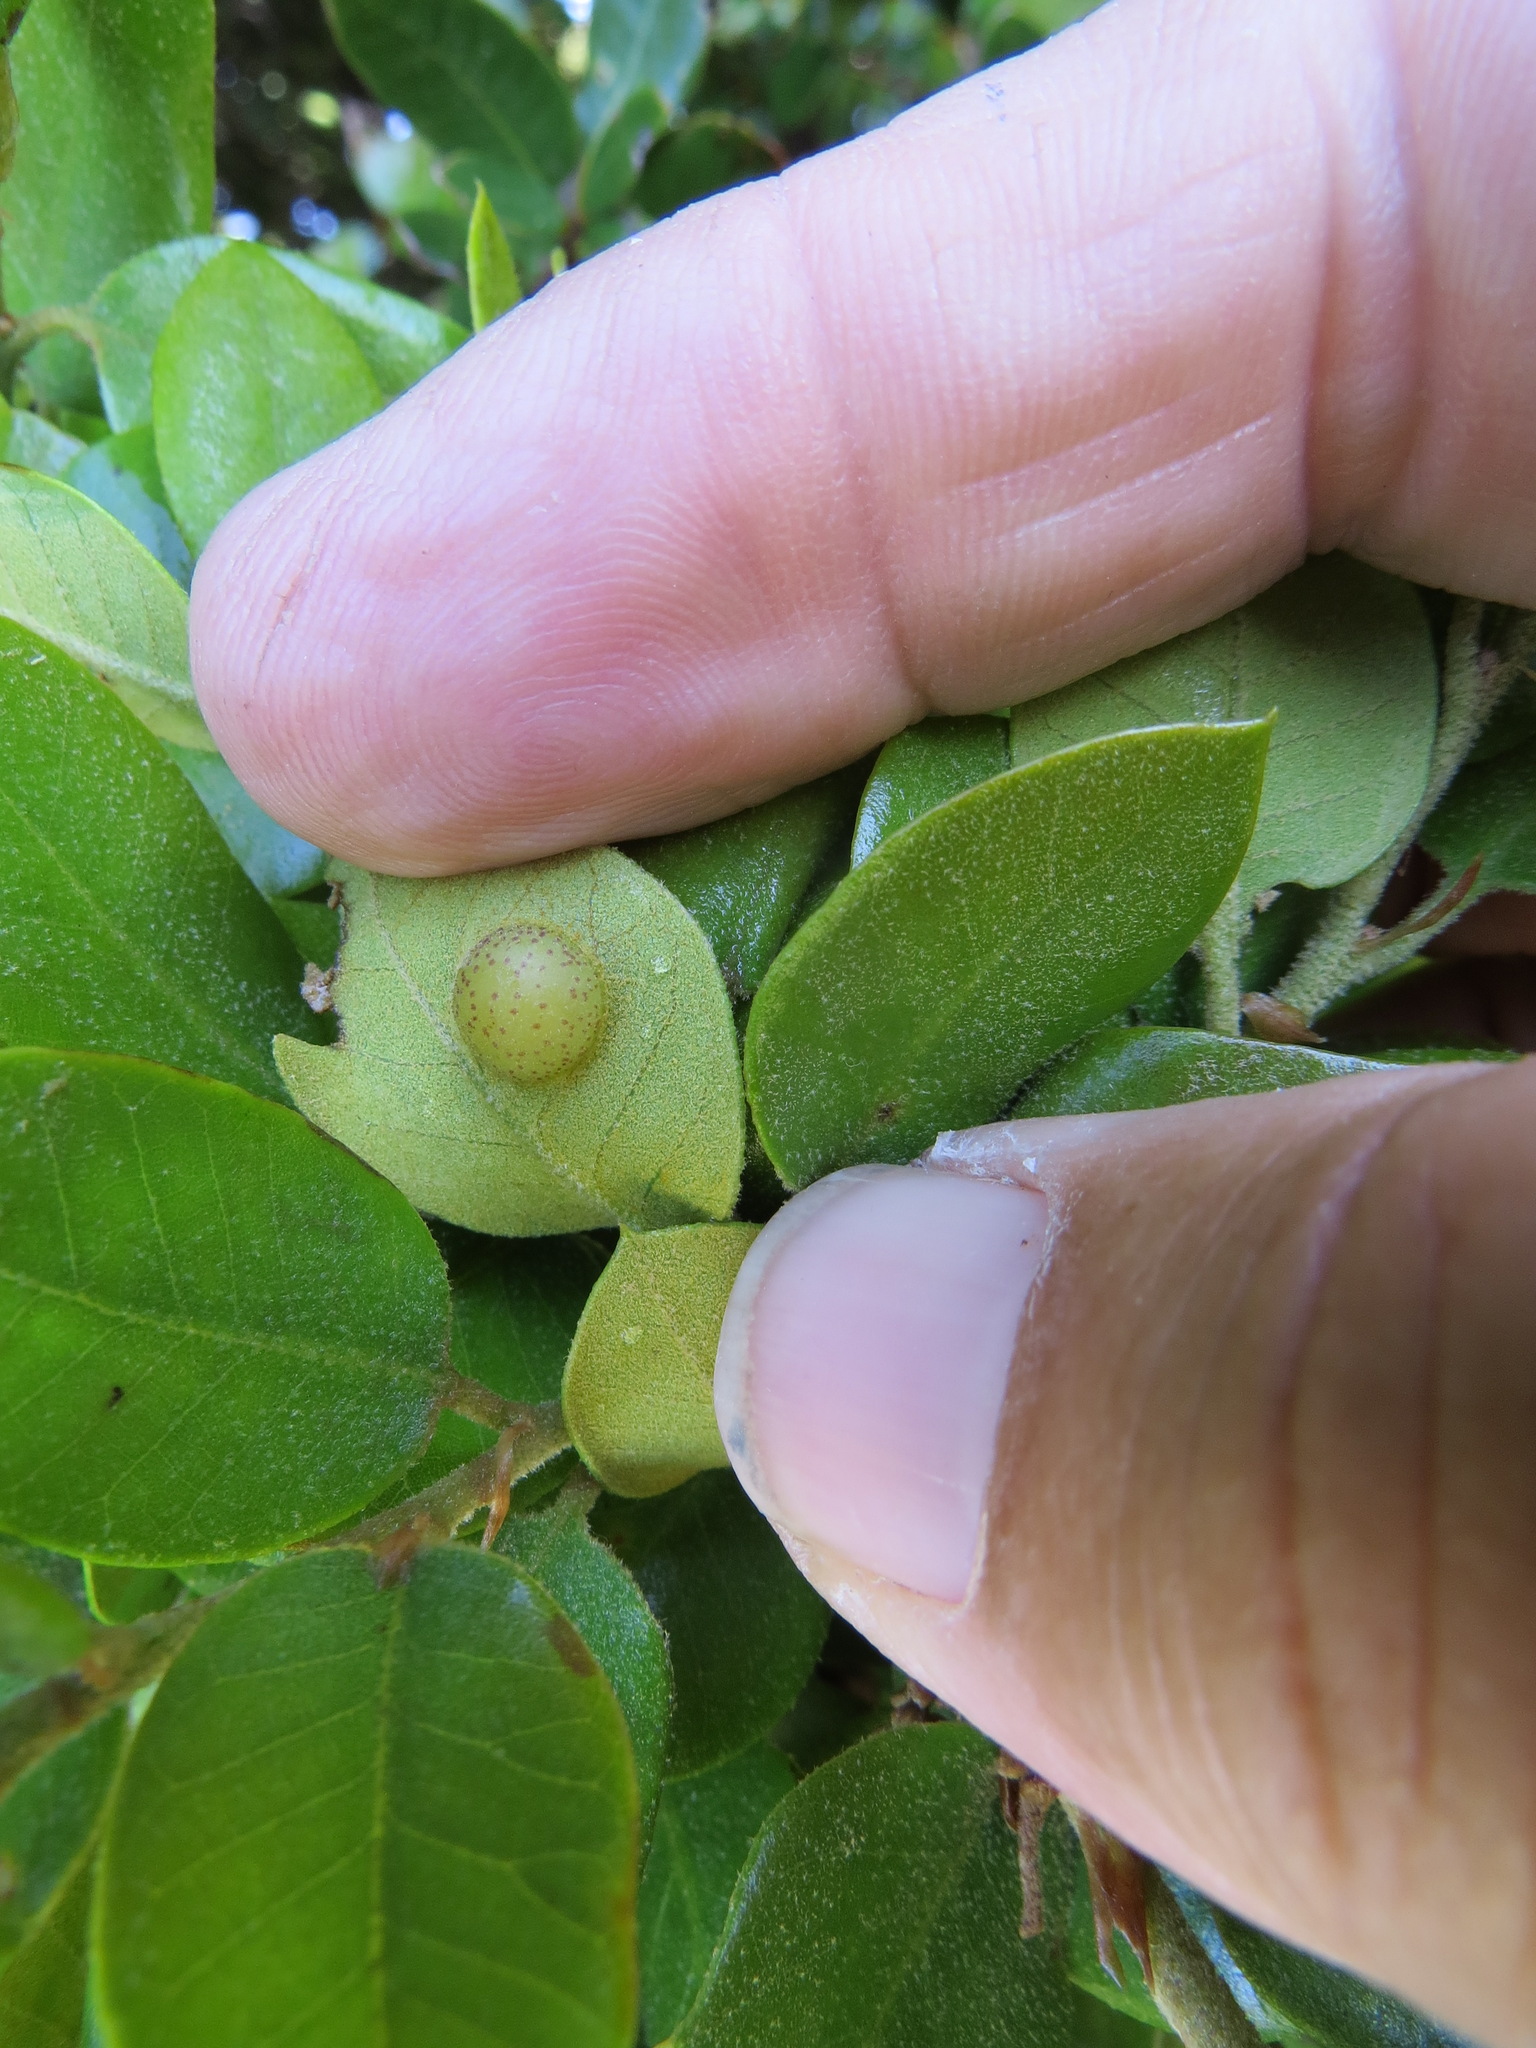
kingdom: Animalia
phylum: Arthropoda
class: Insecta
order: Hymenoptera
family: Cynipidae
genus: Heteroecus
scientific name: Heteroecus
